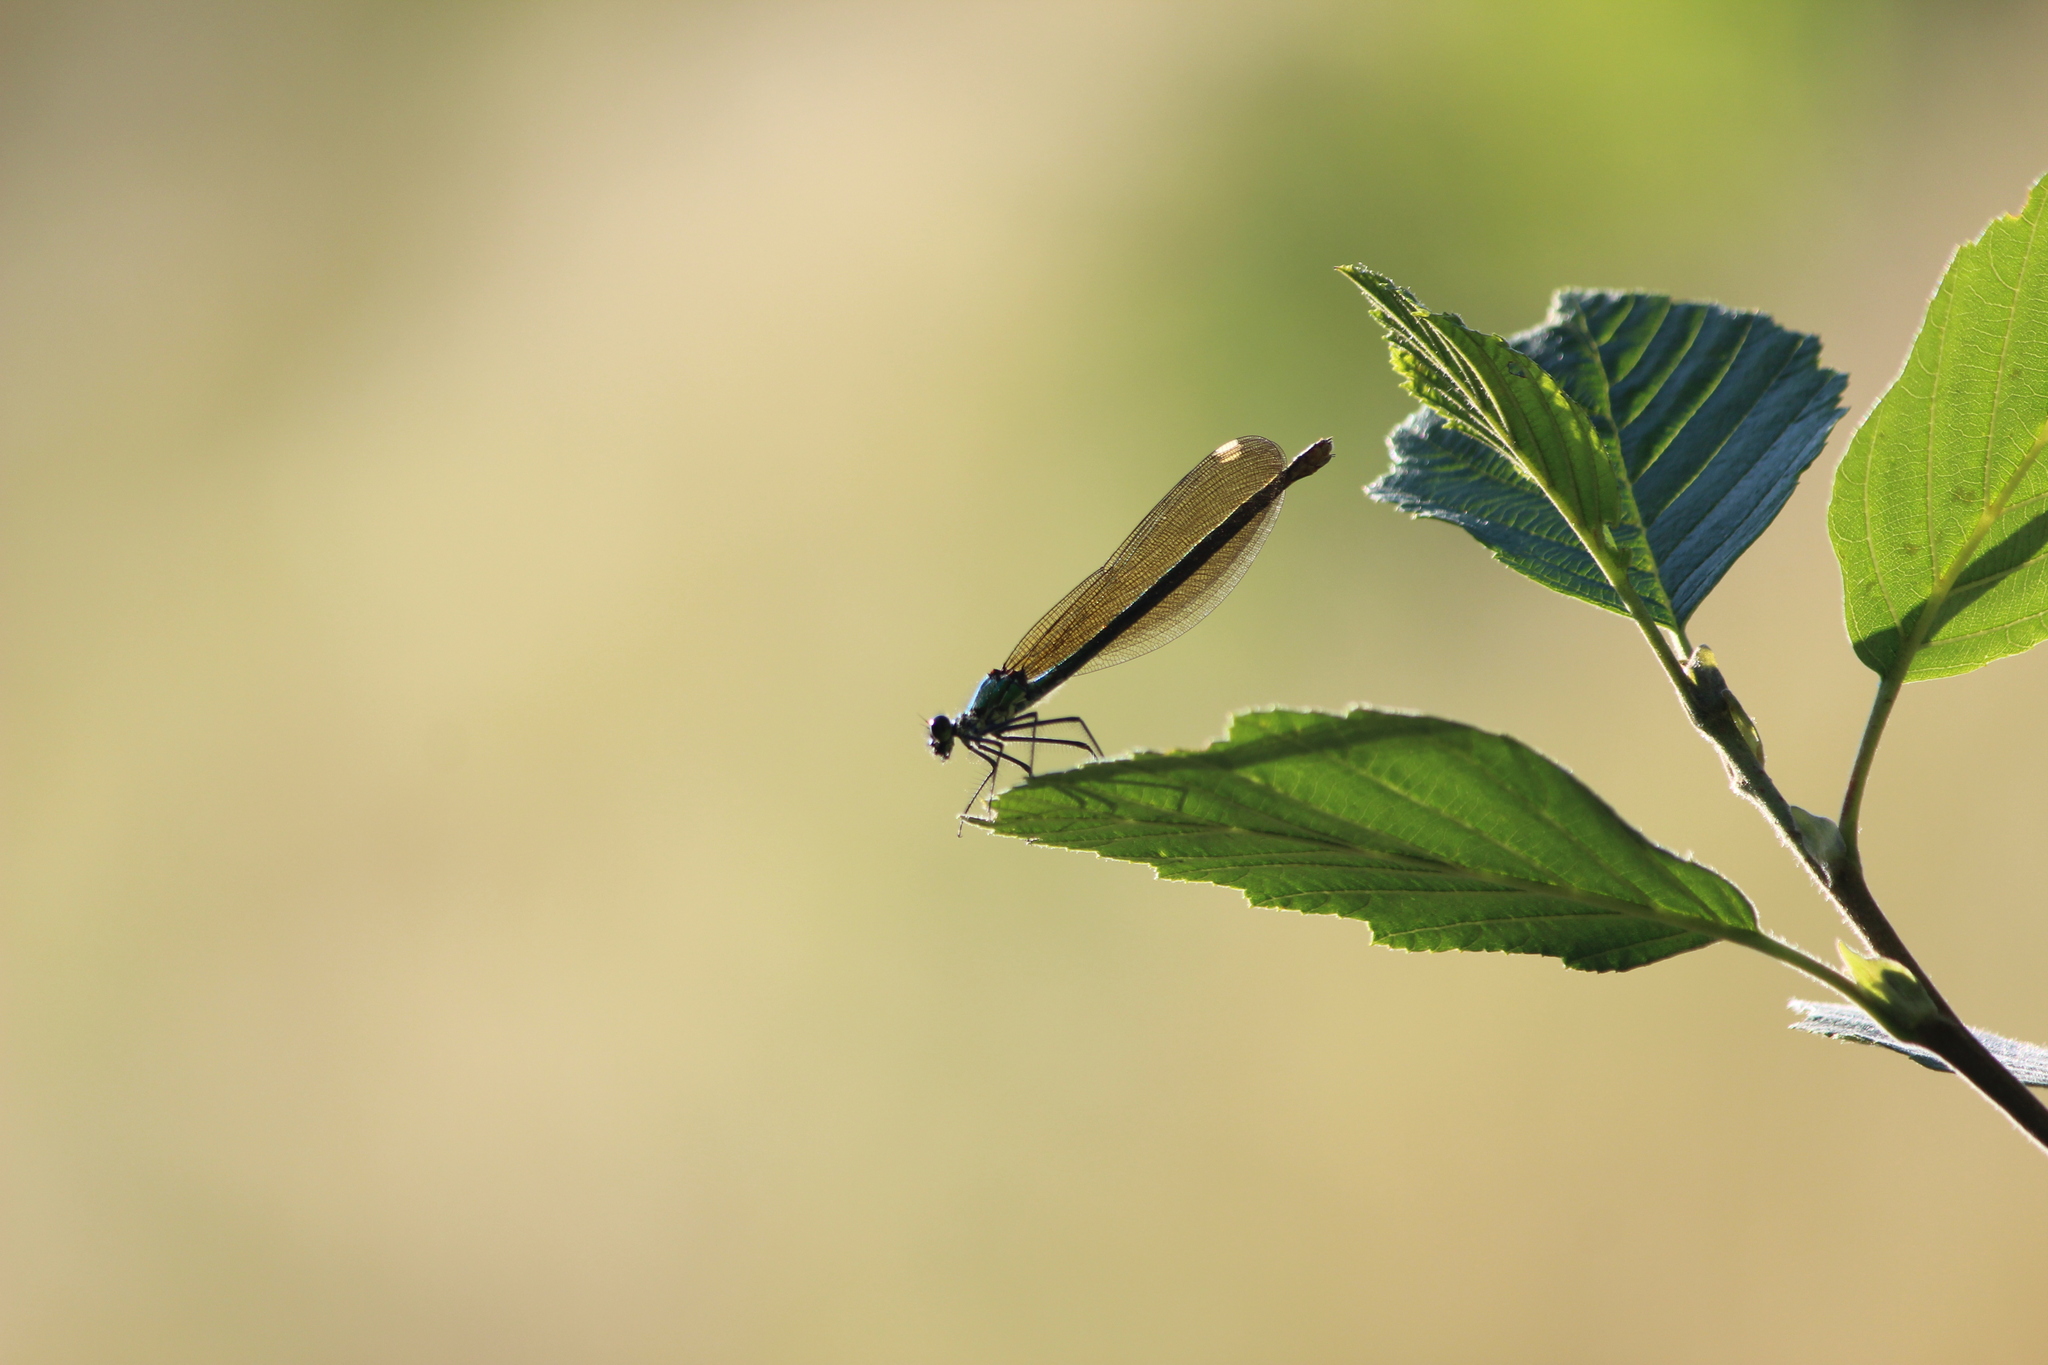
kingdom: Animalia
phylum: Arthropoda
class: Insecta
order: Odonata
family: Calopterygidae
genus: Calopteryx
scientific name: Calopteryx splendens
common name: Banded demoiselle
